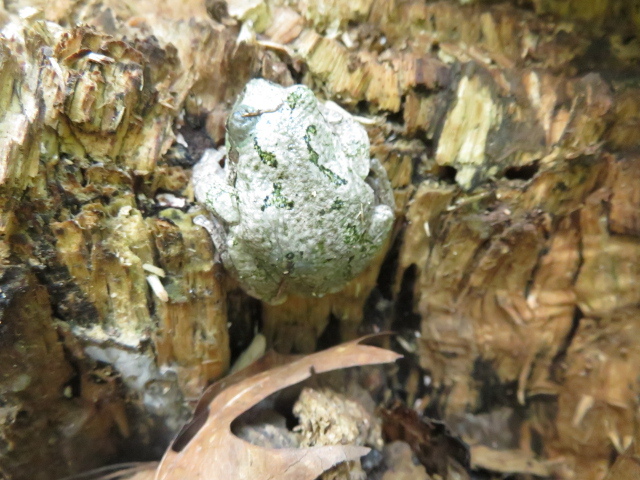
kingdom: Animalia
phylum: Chordata
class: Amphibia
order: Anura
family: Hylidae
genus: Hyla
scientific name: Hyla
